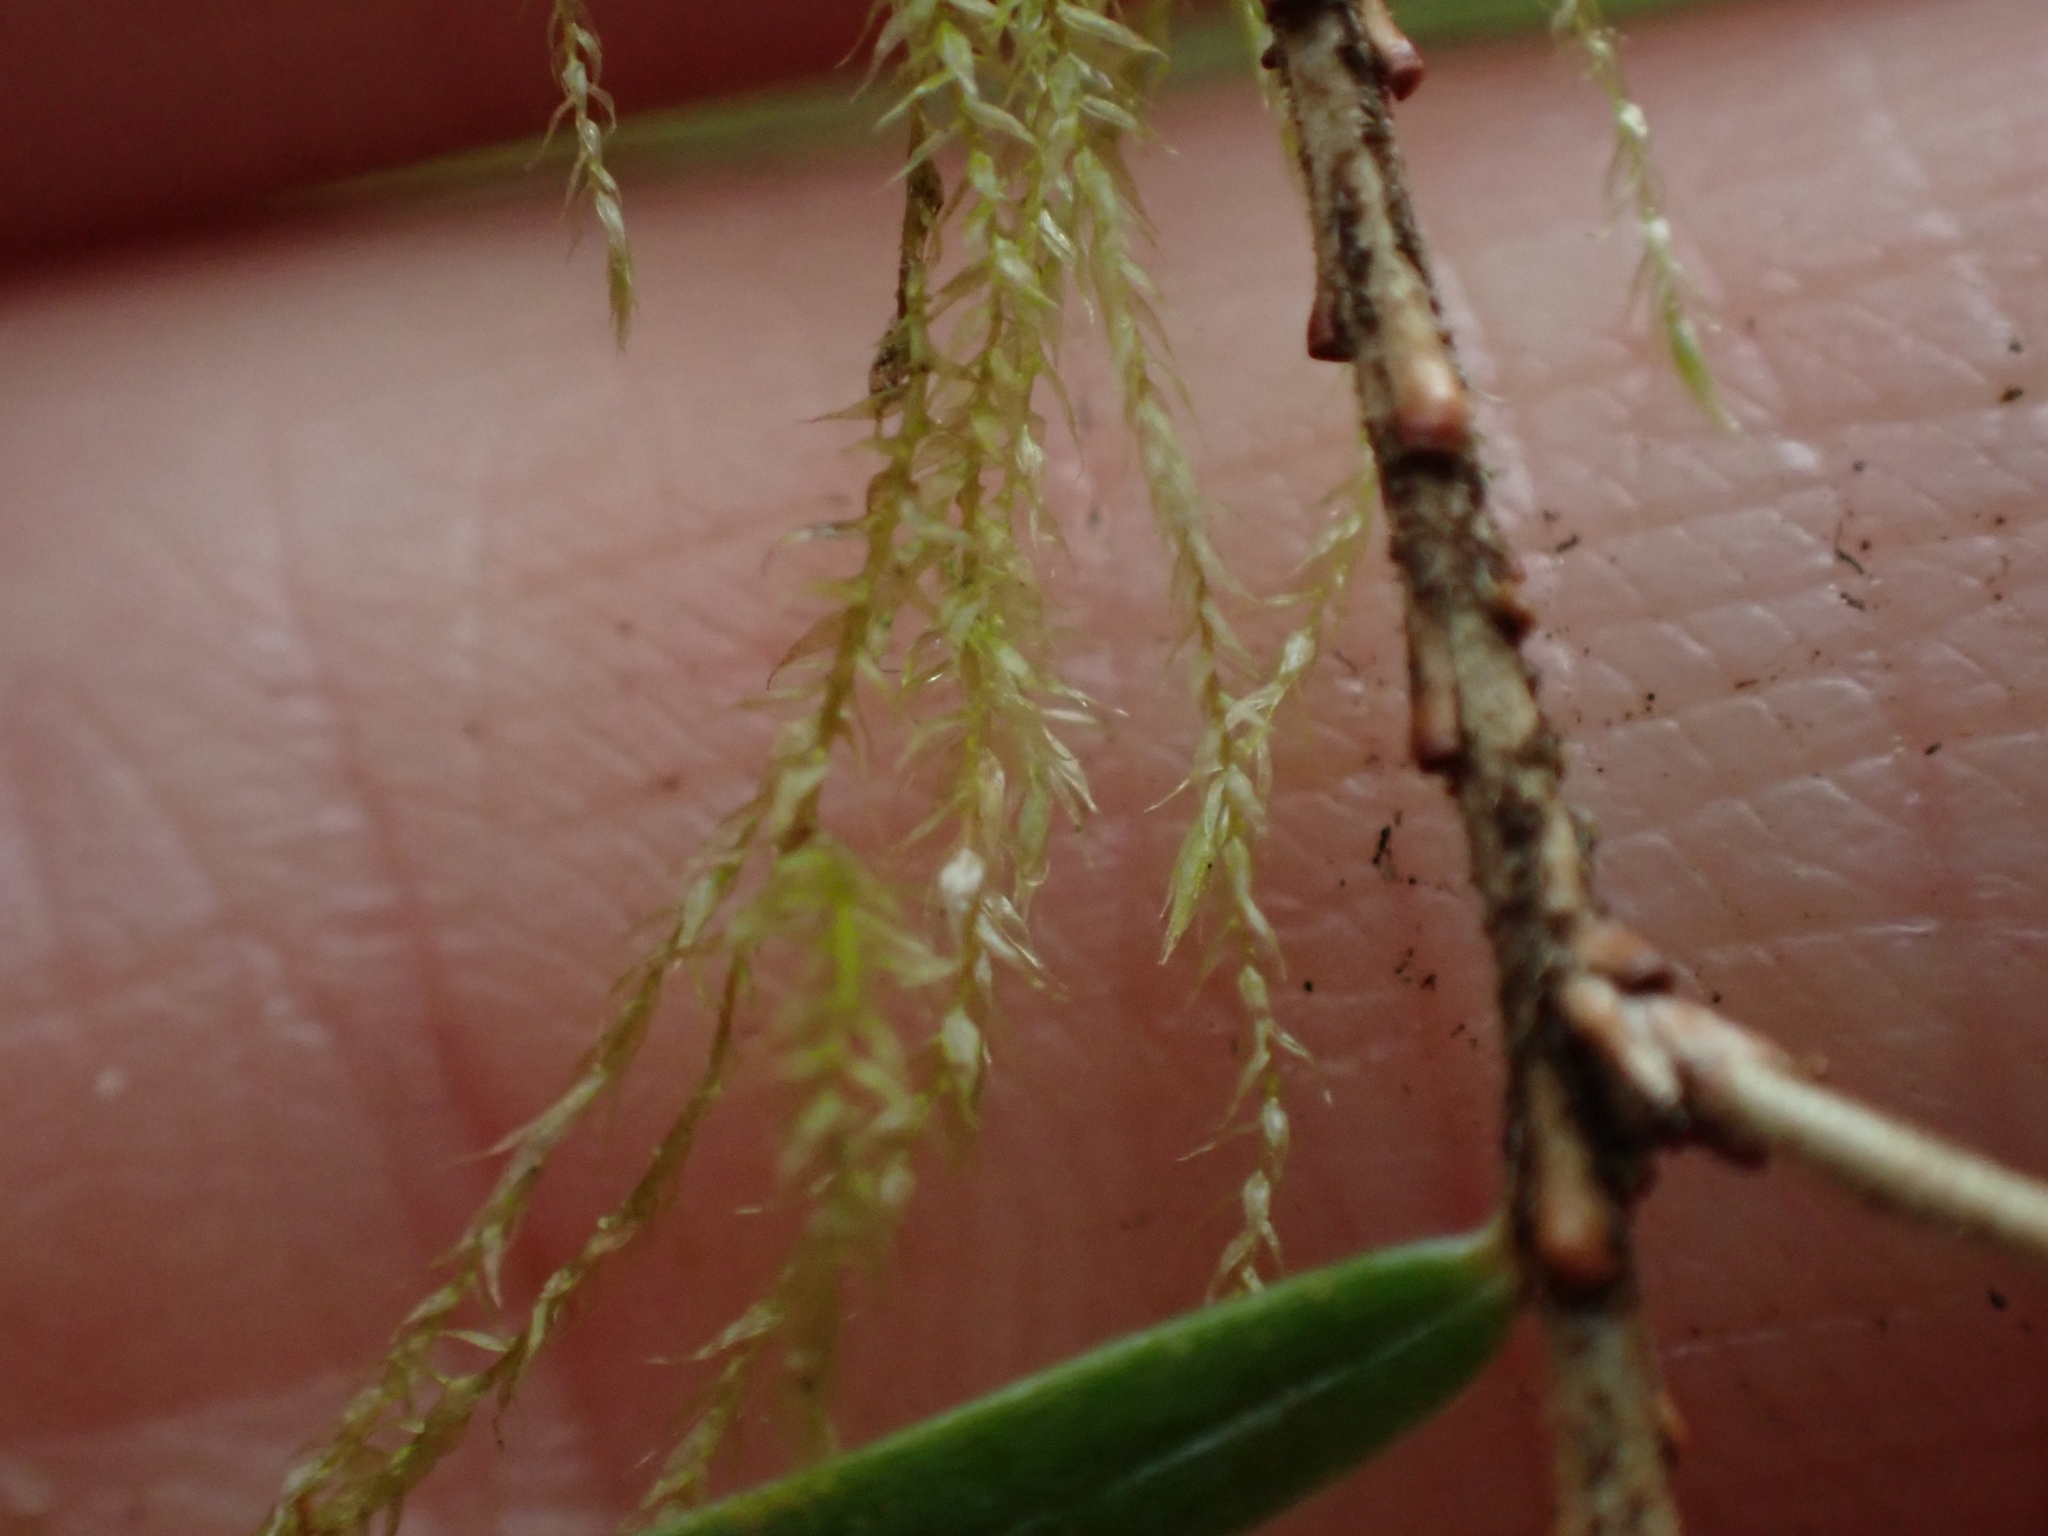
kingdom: Plantae
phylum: Bryophyta
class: Bryopsida
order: Hypnales
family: Lembophyllaceae
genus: Pseudisothecium
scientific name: Pseudisothecium stoloniferum
